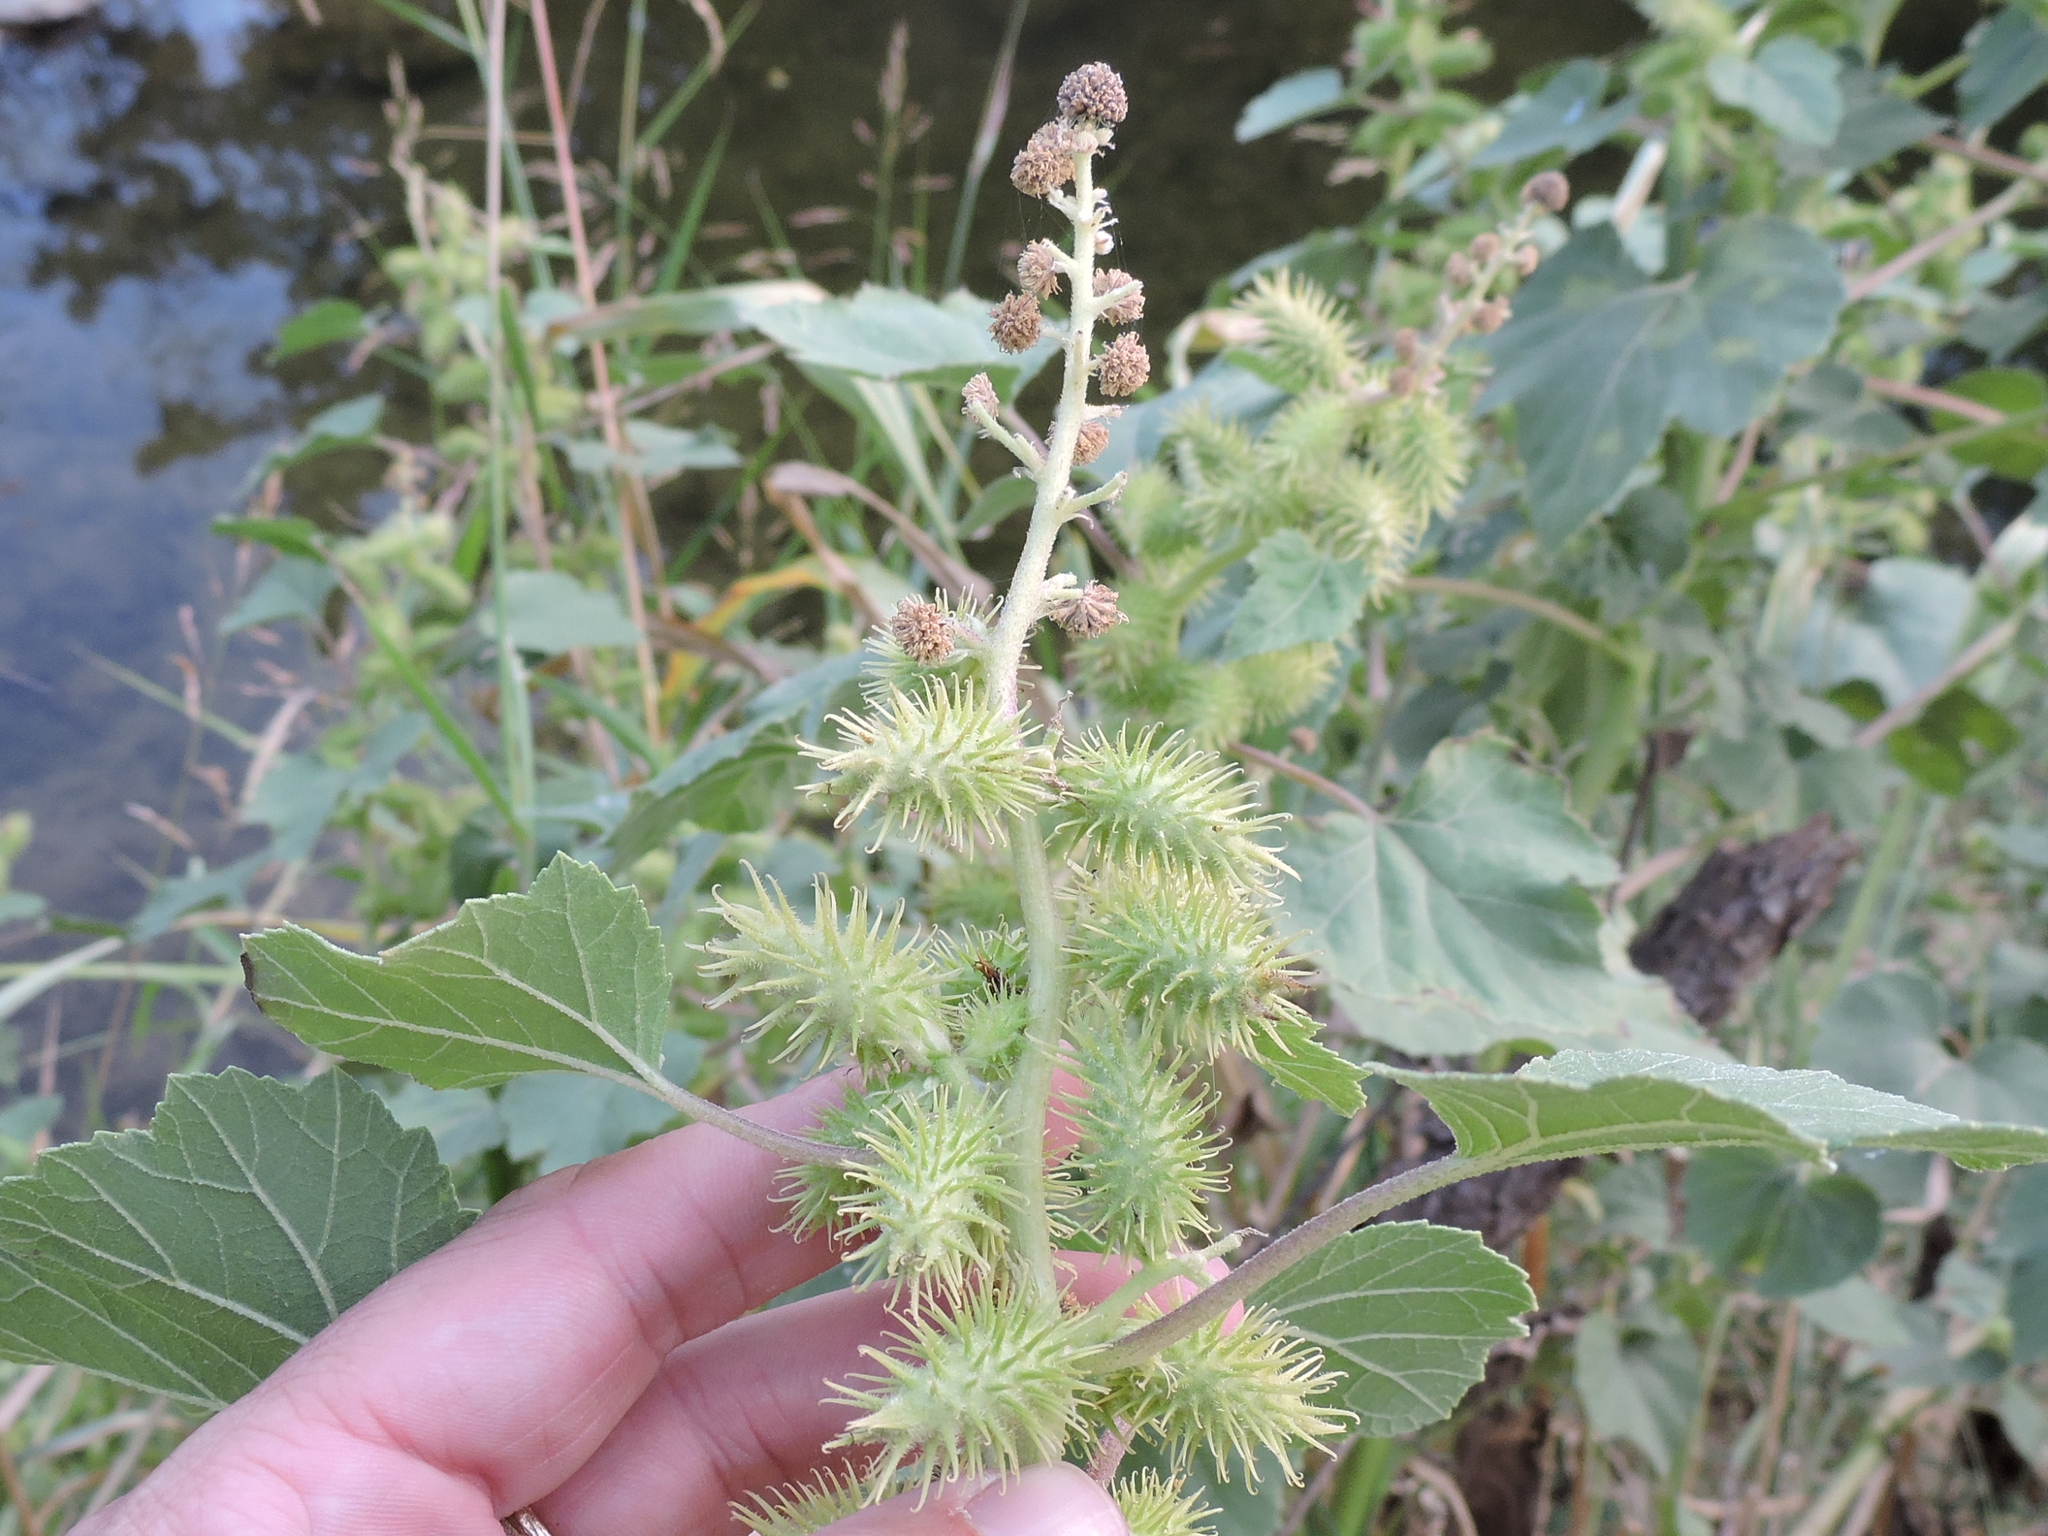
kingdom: Plantae
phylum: Tracheophyta
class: Magnoliopsida
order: Asterales
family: Asteraceae
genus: Xanthium
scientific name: Xanthium strumarium
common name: Rough cocklebur
